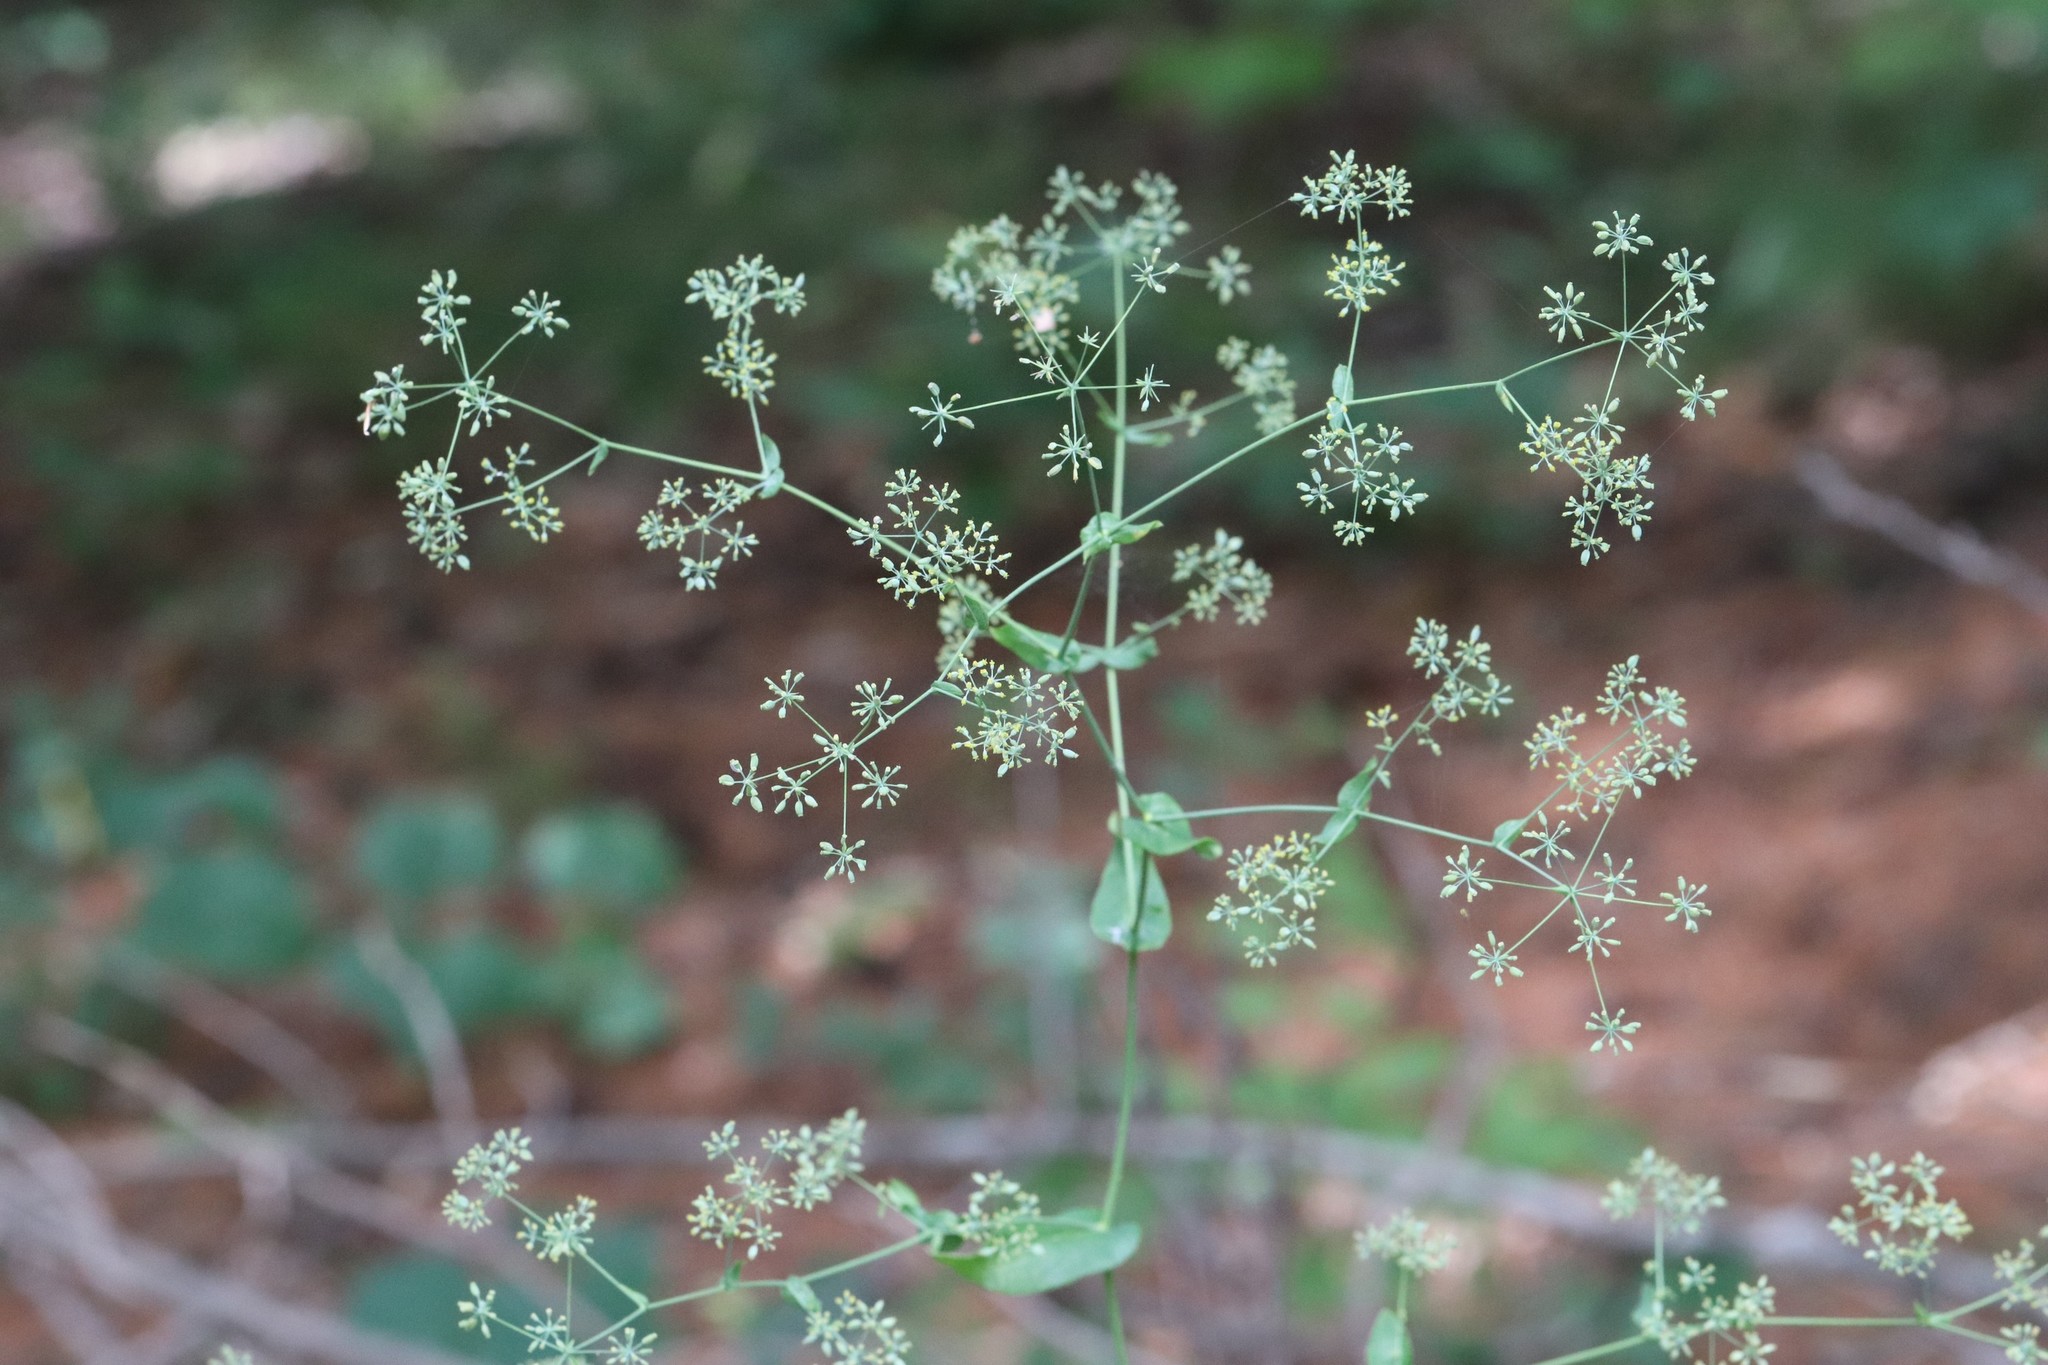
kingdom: Plantae
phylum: Tracheophyta
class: Magnoliopsida
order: Apiales
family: Apiaceae
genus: Bupleurum
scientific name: Bupleurum longiradiatum
